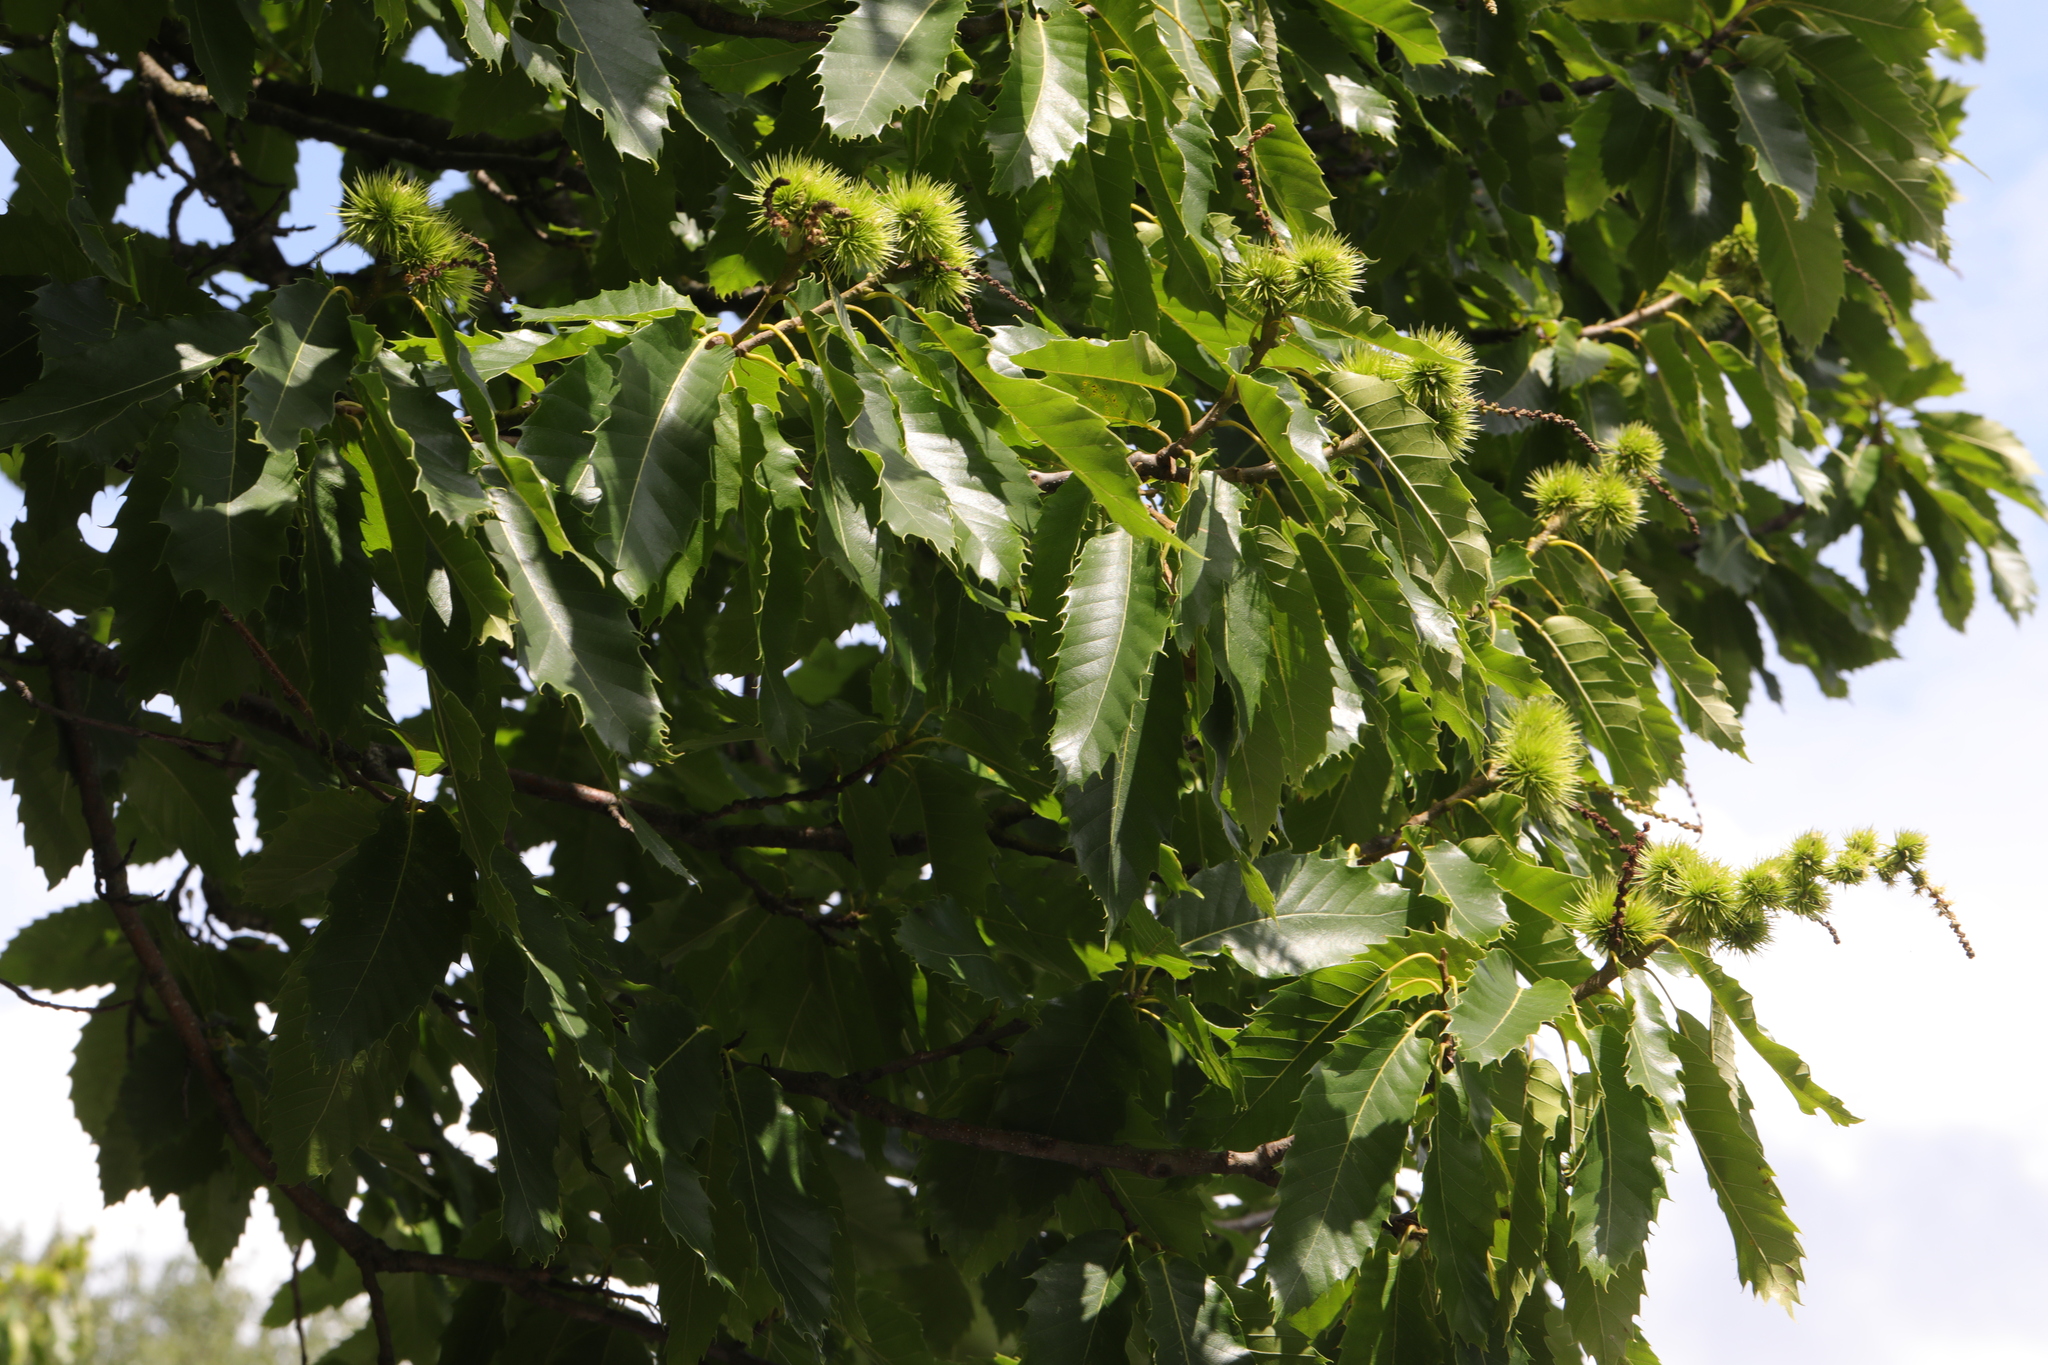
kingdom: Plantae
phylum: Tracheophyta
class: Magnoliopsida
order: Fagales
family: Fagaceae
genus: Castanea
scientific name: Castanea sativa
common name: Sweet chestnut
